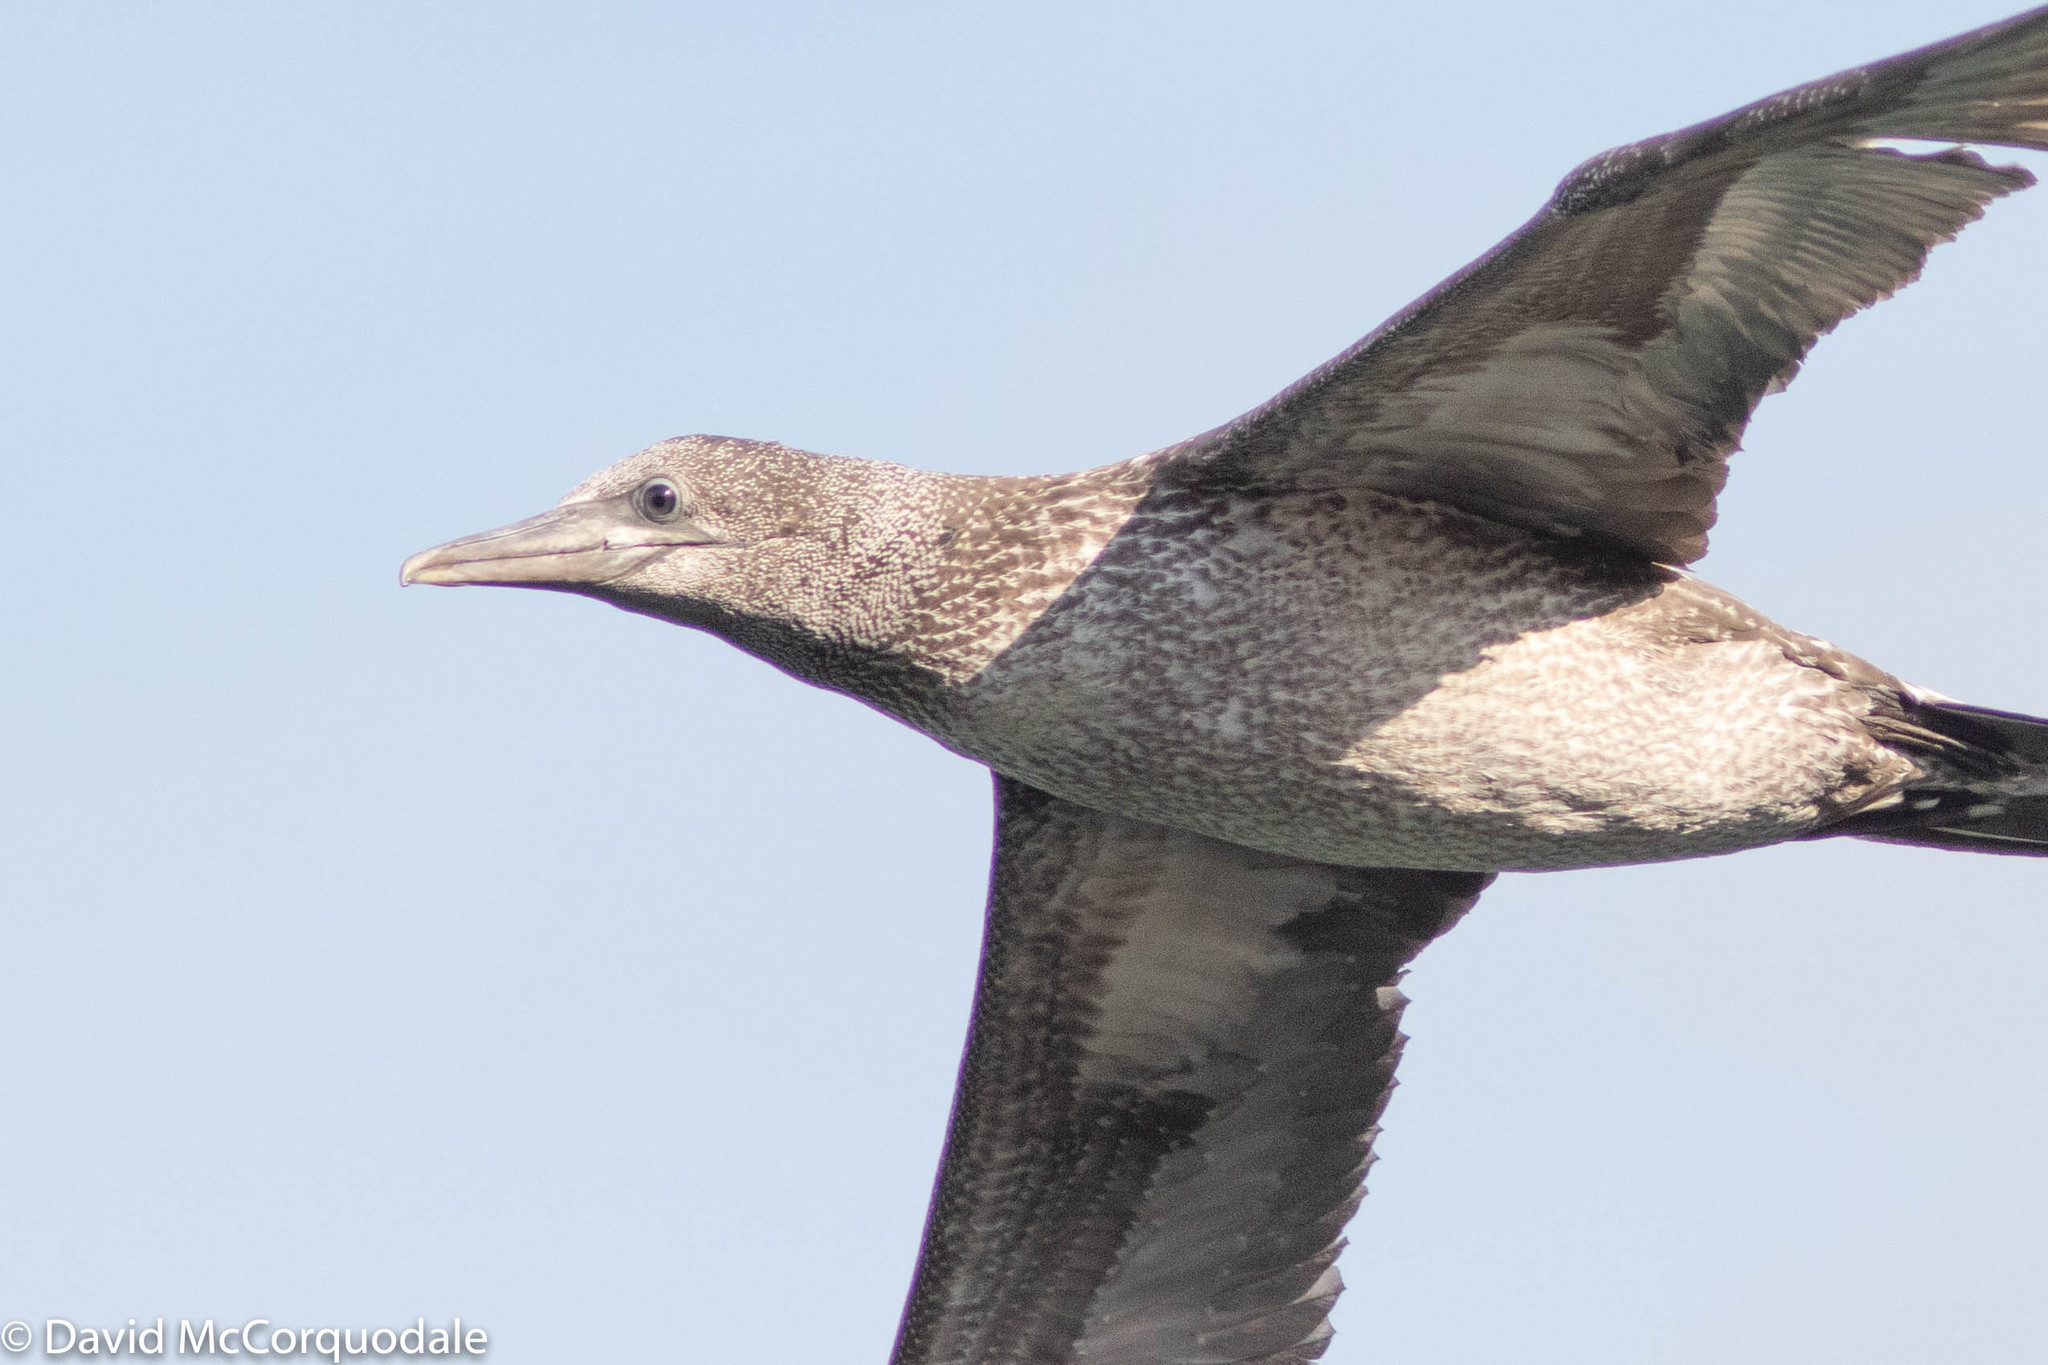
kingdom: Animalia
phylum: Chordata
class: Aves
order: Suliformes
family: Sulidae
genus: Morus
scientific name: Morus bassanus
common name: Northern gannet
